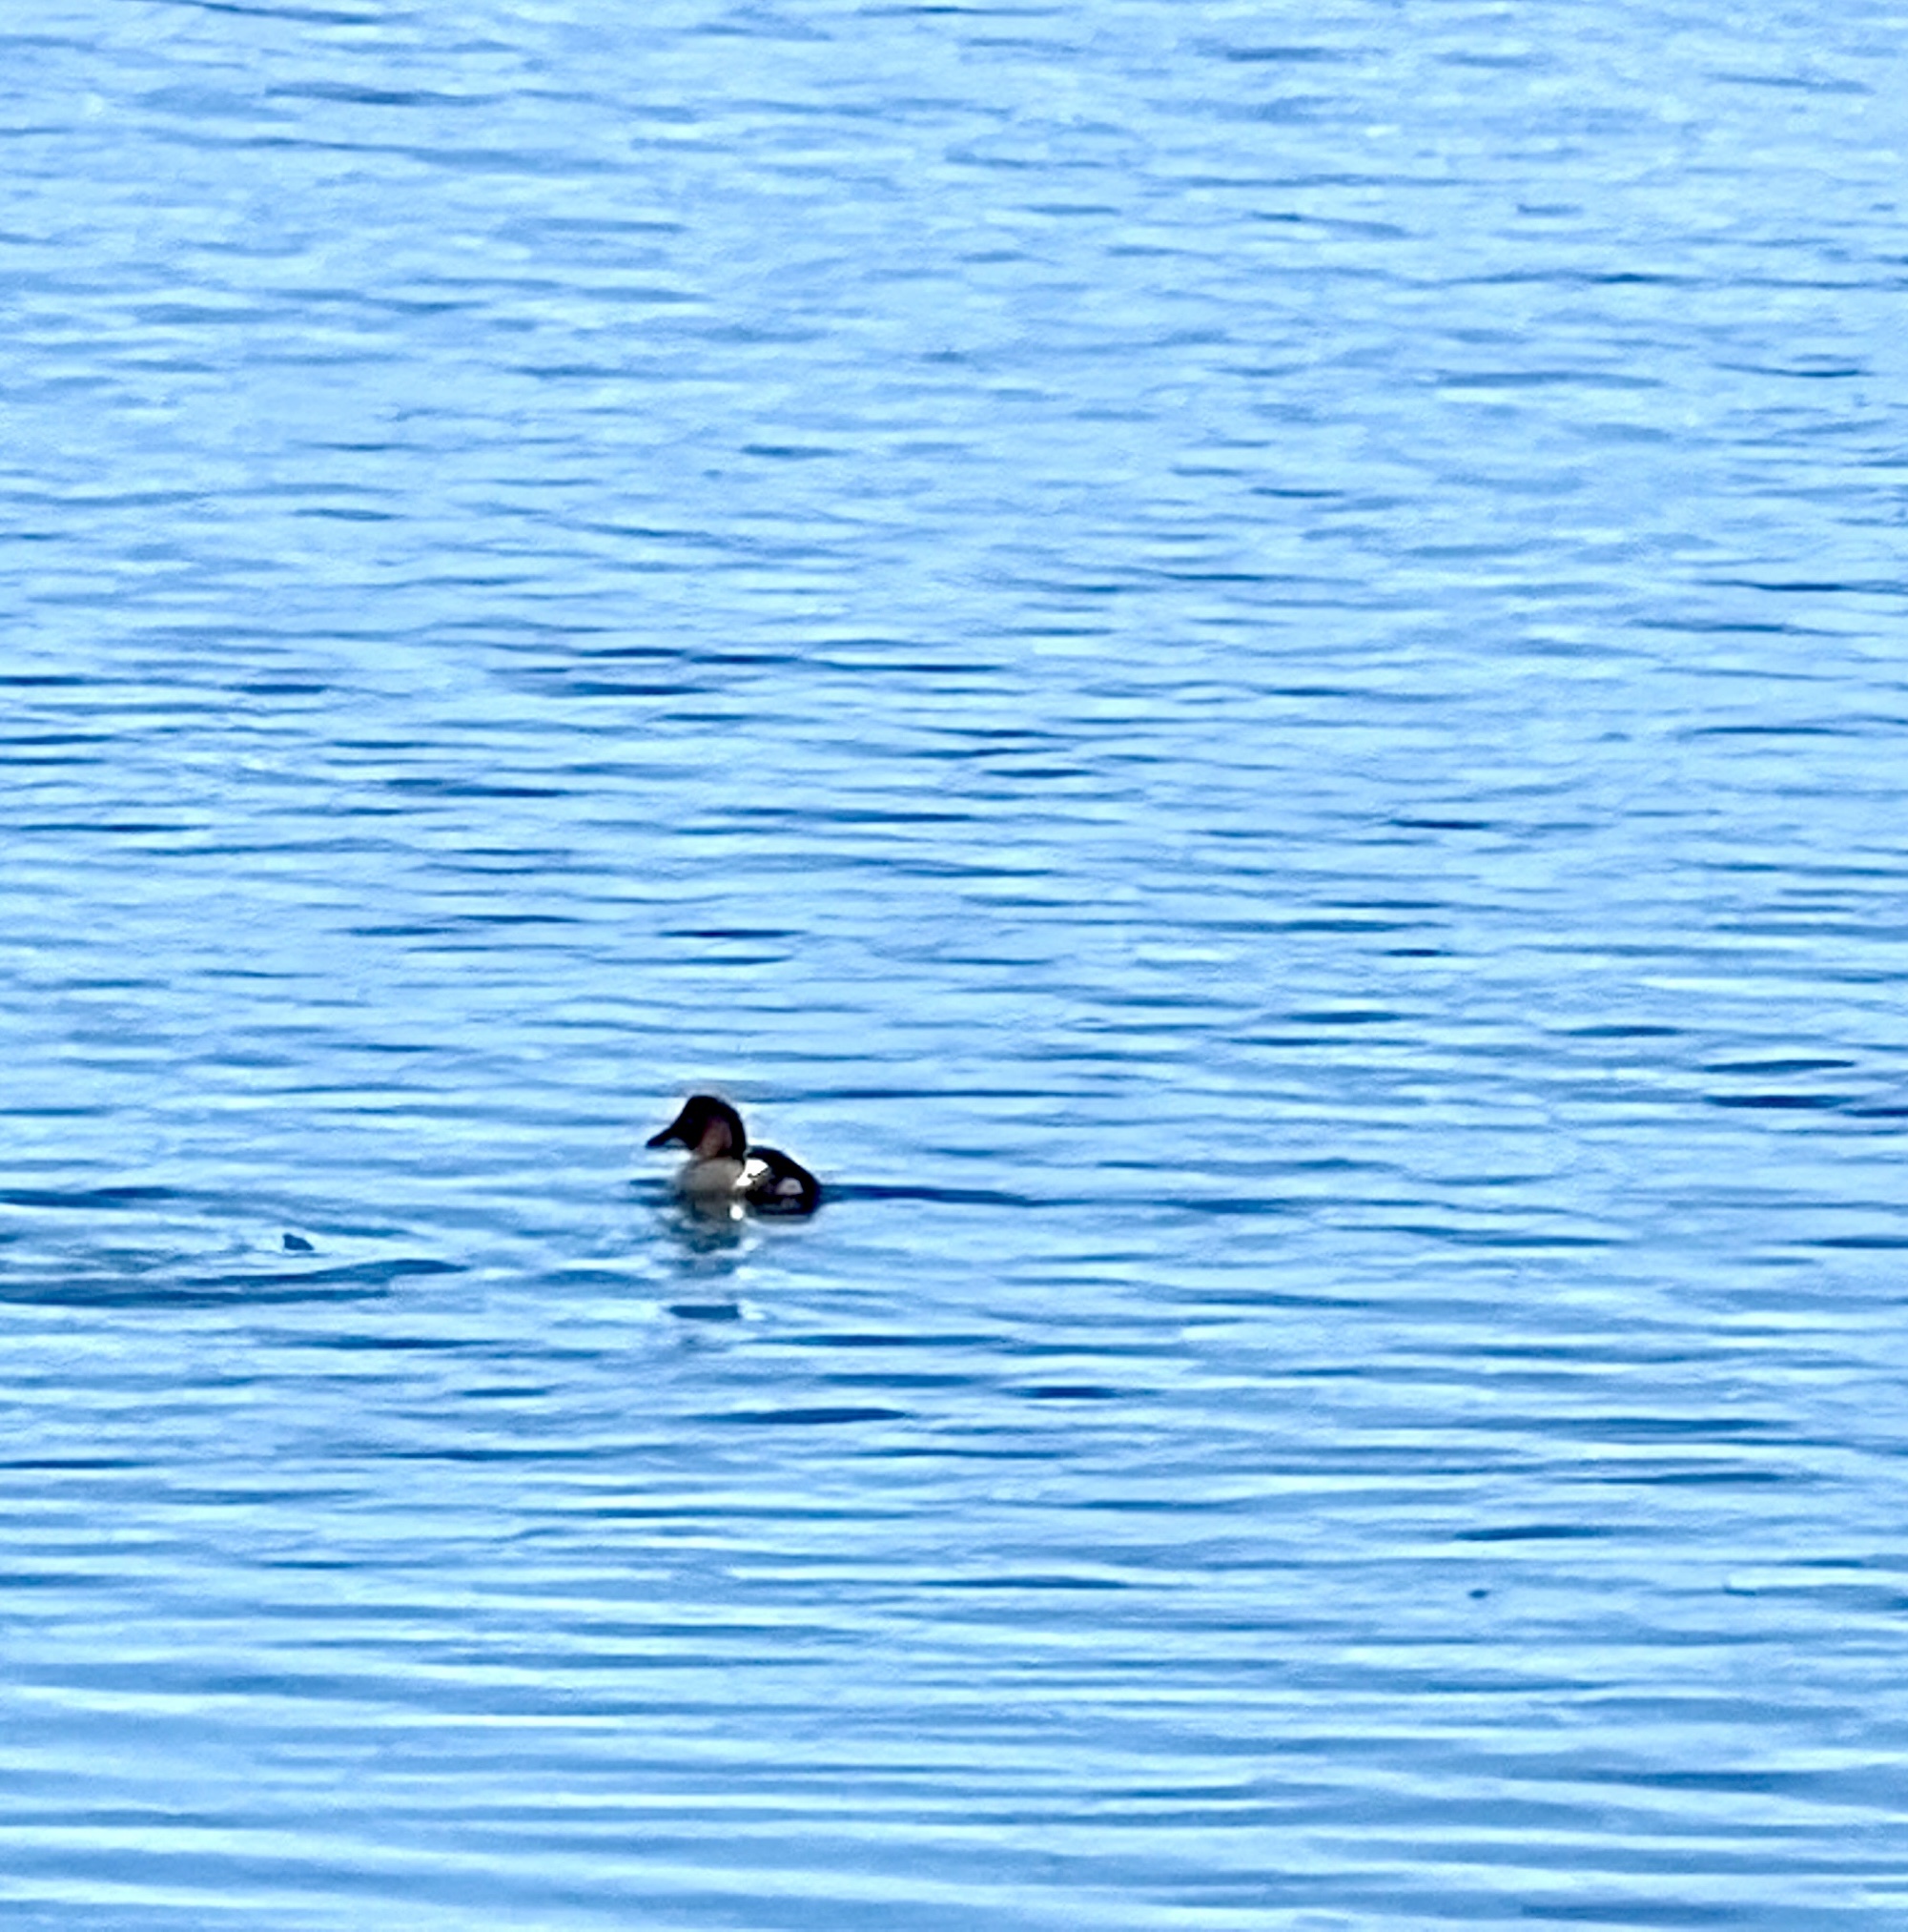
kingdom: Animalia
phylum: Chordata
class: Aves
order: Anseriformes
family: Anatidae
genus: Bucephala
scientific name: Bucephala clangula
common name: Common goldeneye
